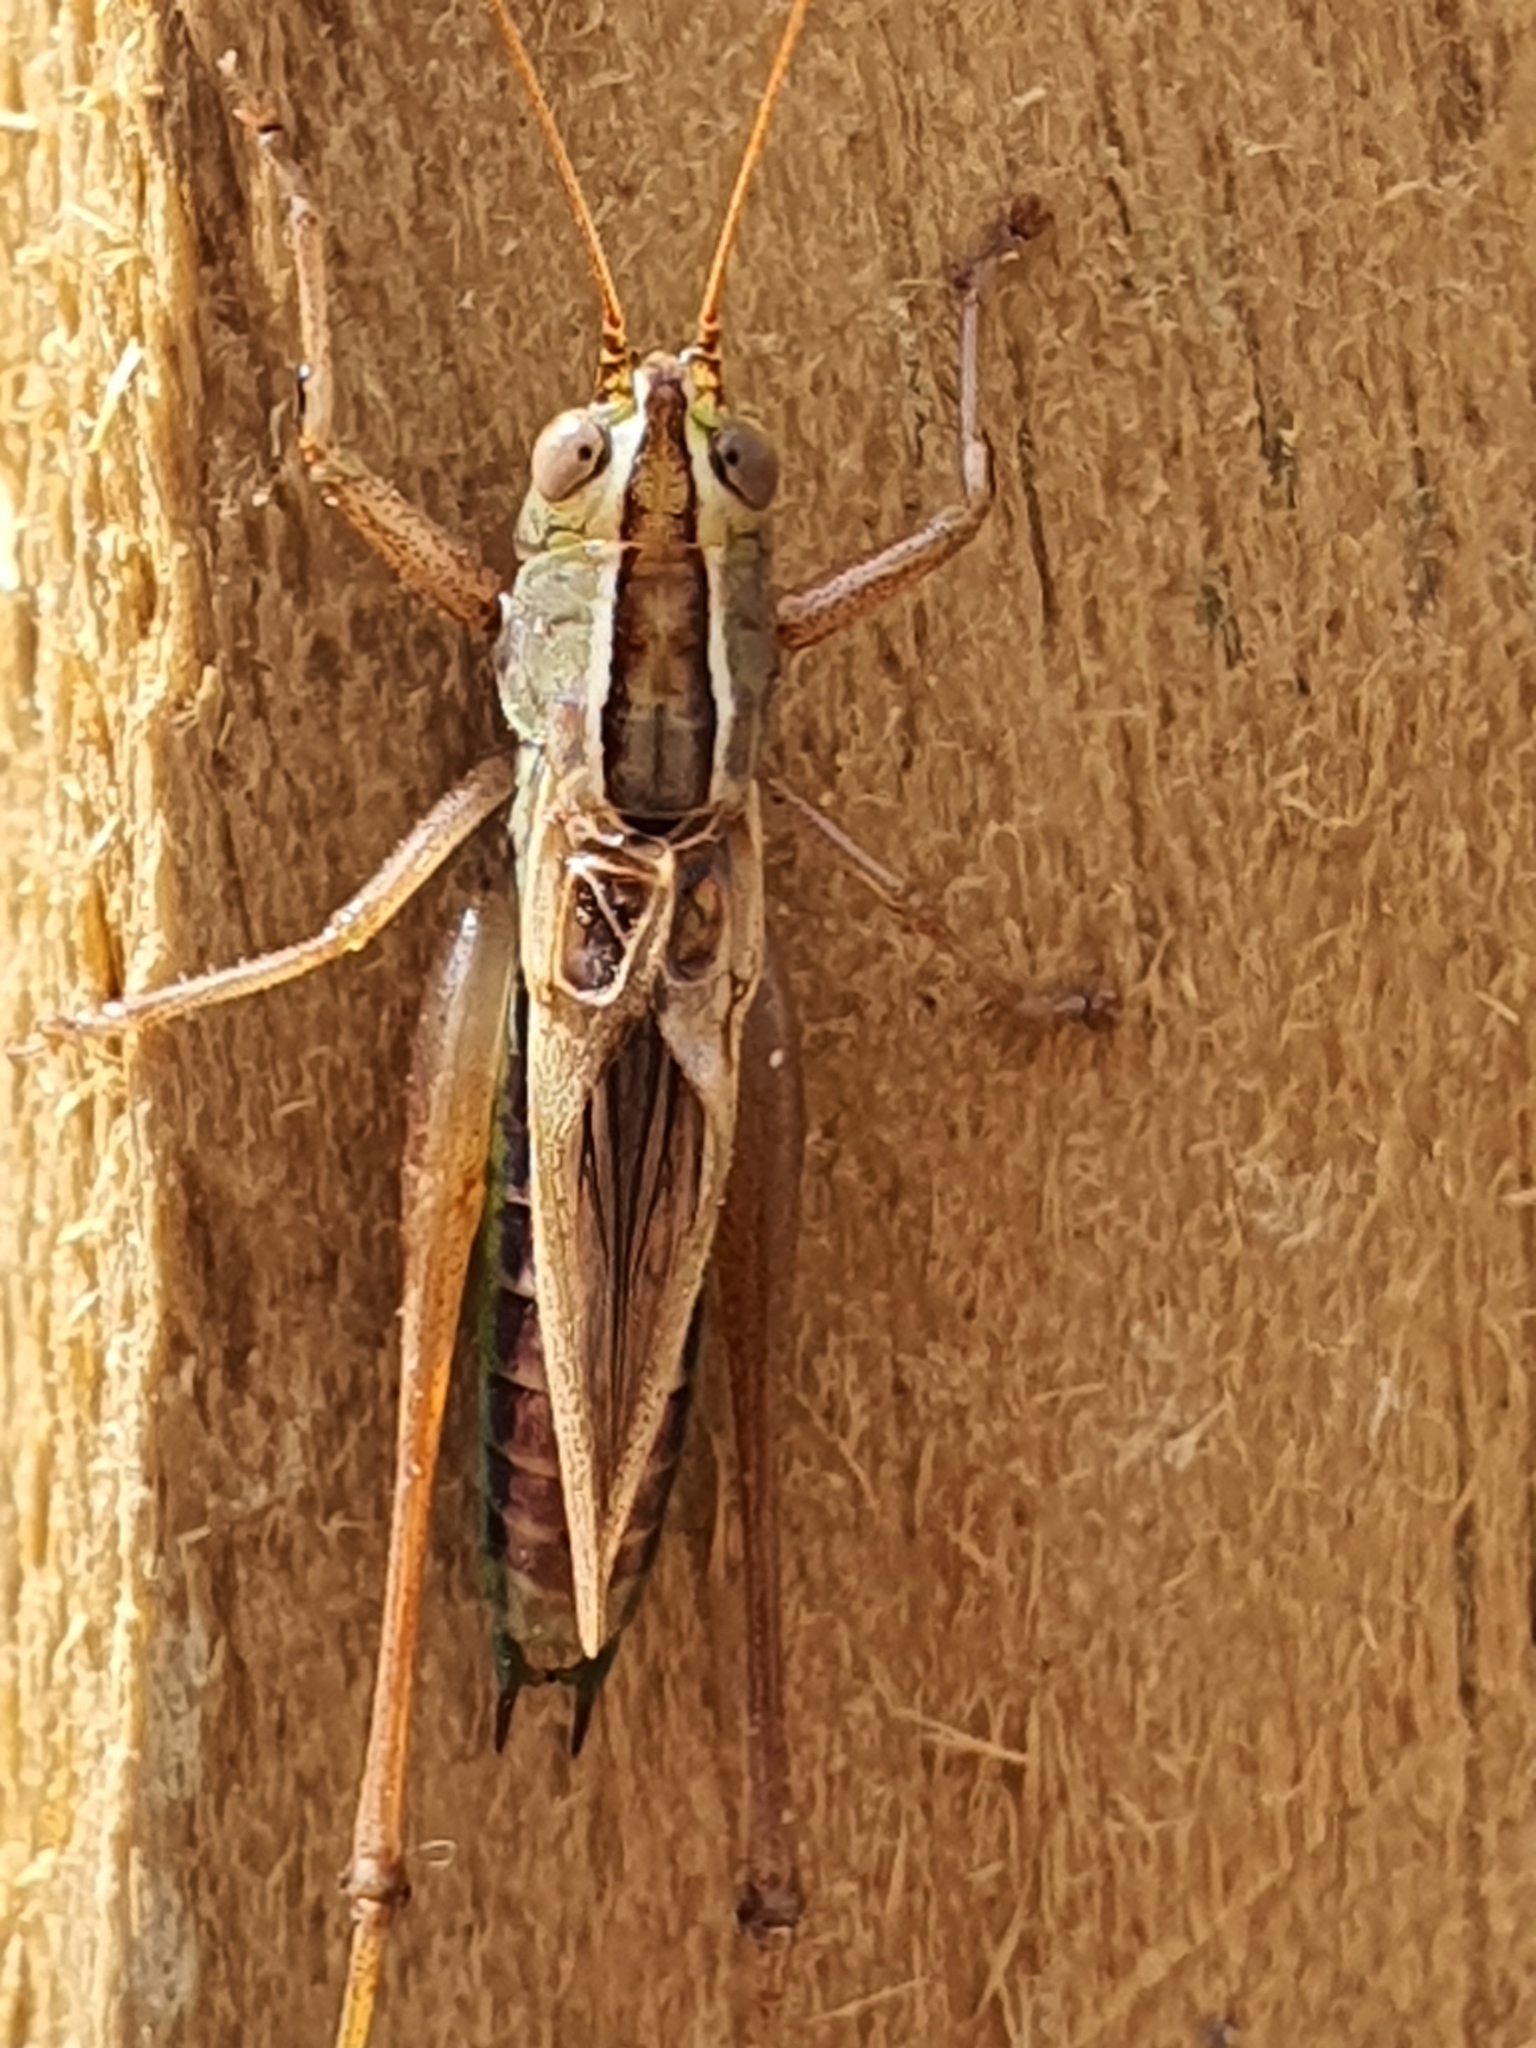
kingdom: Animalia
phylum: Arthropoda
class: Insecta
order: Orthoptera
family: Tettigoniidae
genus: Conocephalus
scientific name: Conocephalus albescens
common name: Whitish meadow katydid
